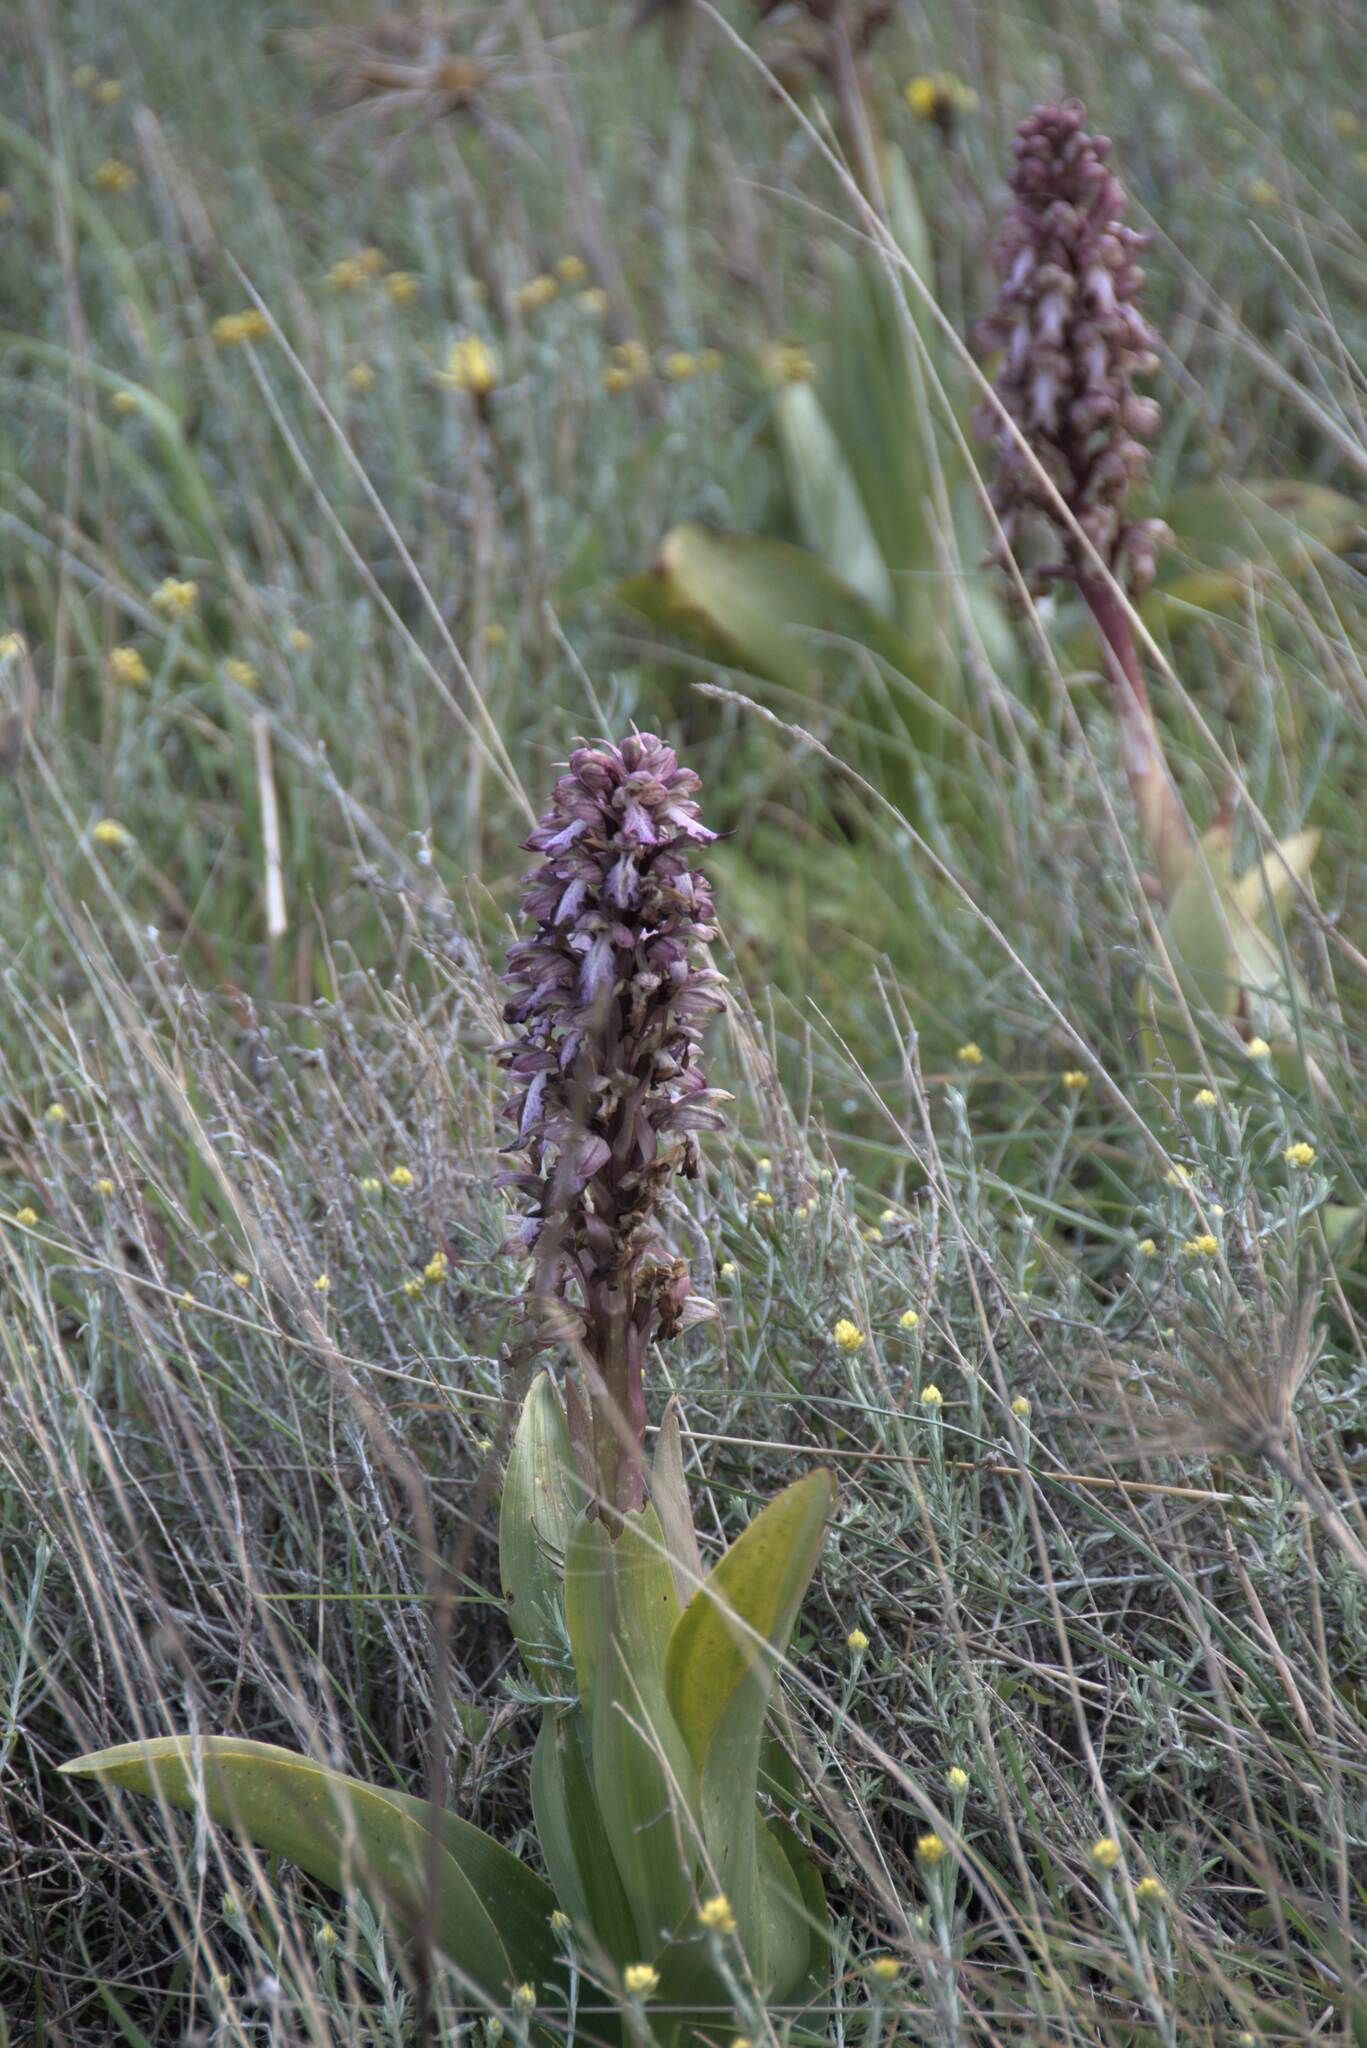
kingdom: Plantae
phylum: Tracheophyta
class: Liliopsida
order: Asparagales
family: Orchidaceae
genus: Himantoglossum
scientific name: Himantoglossum robertianum
